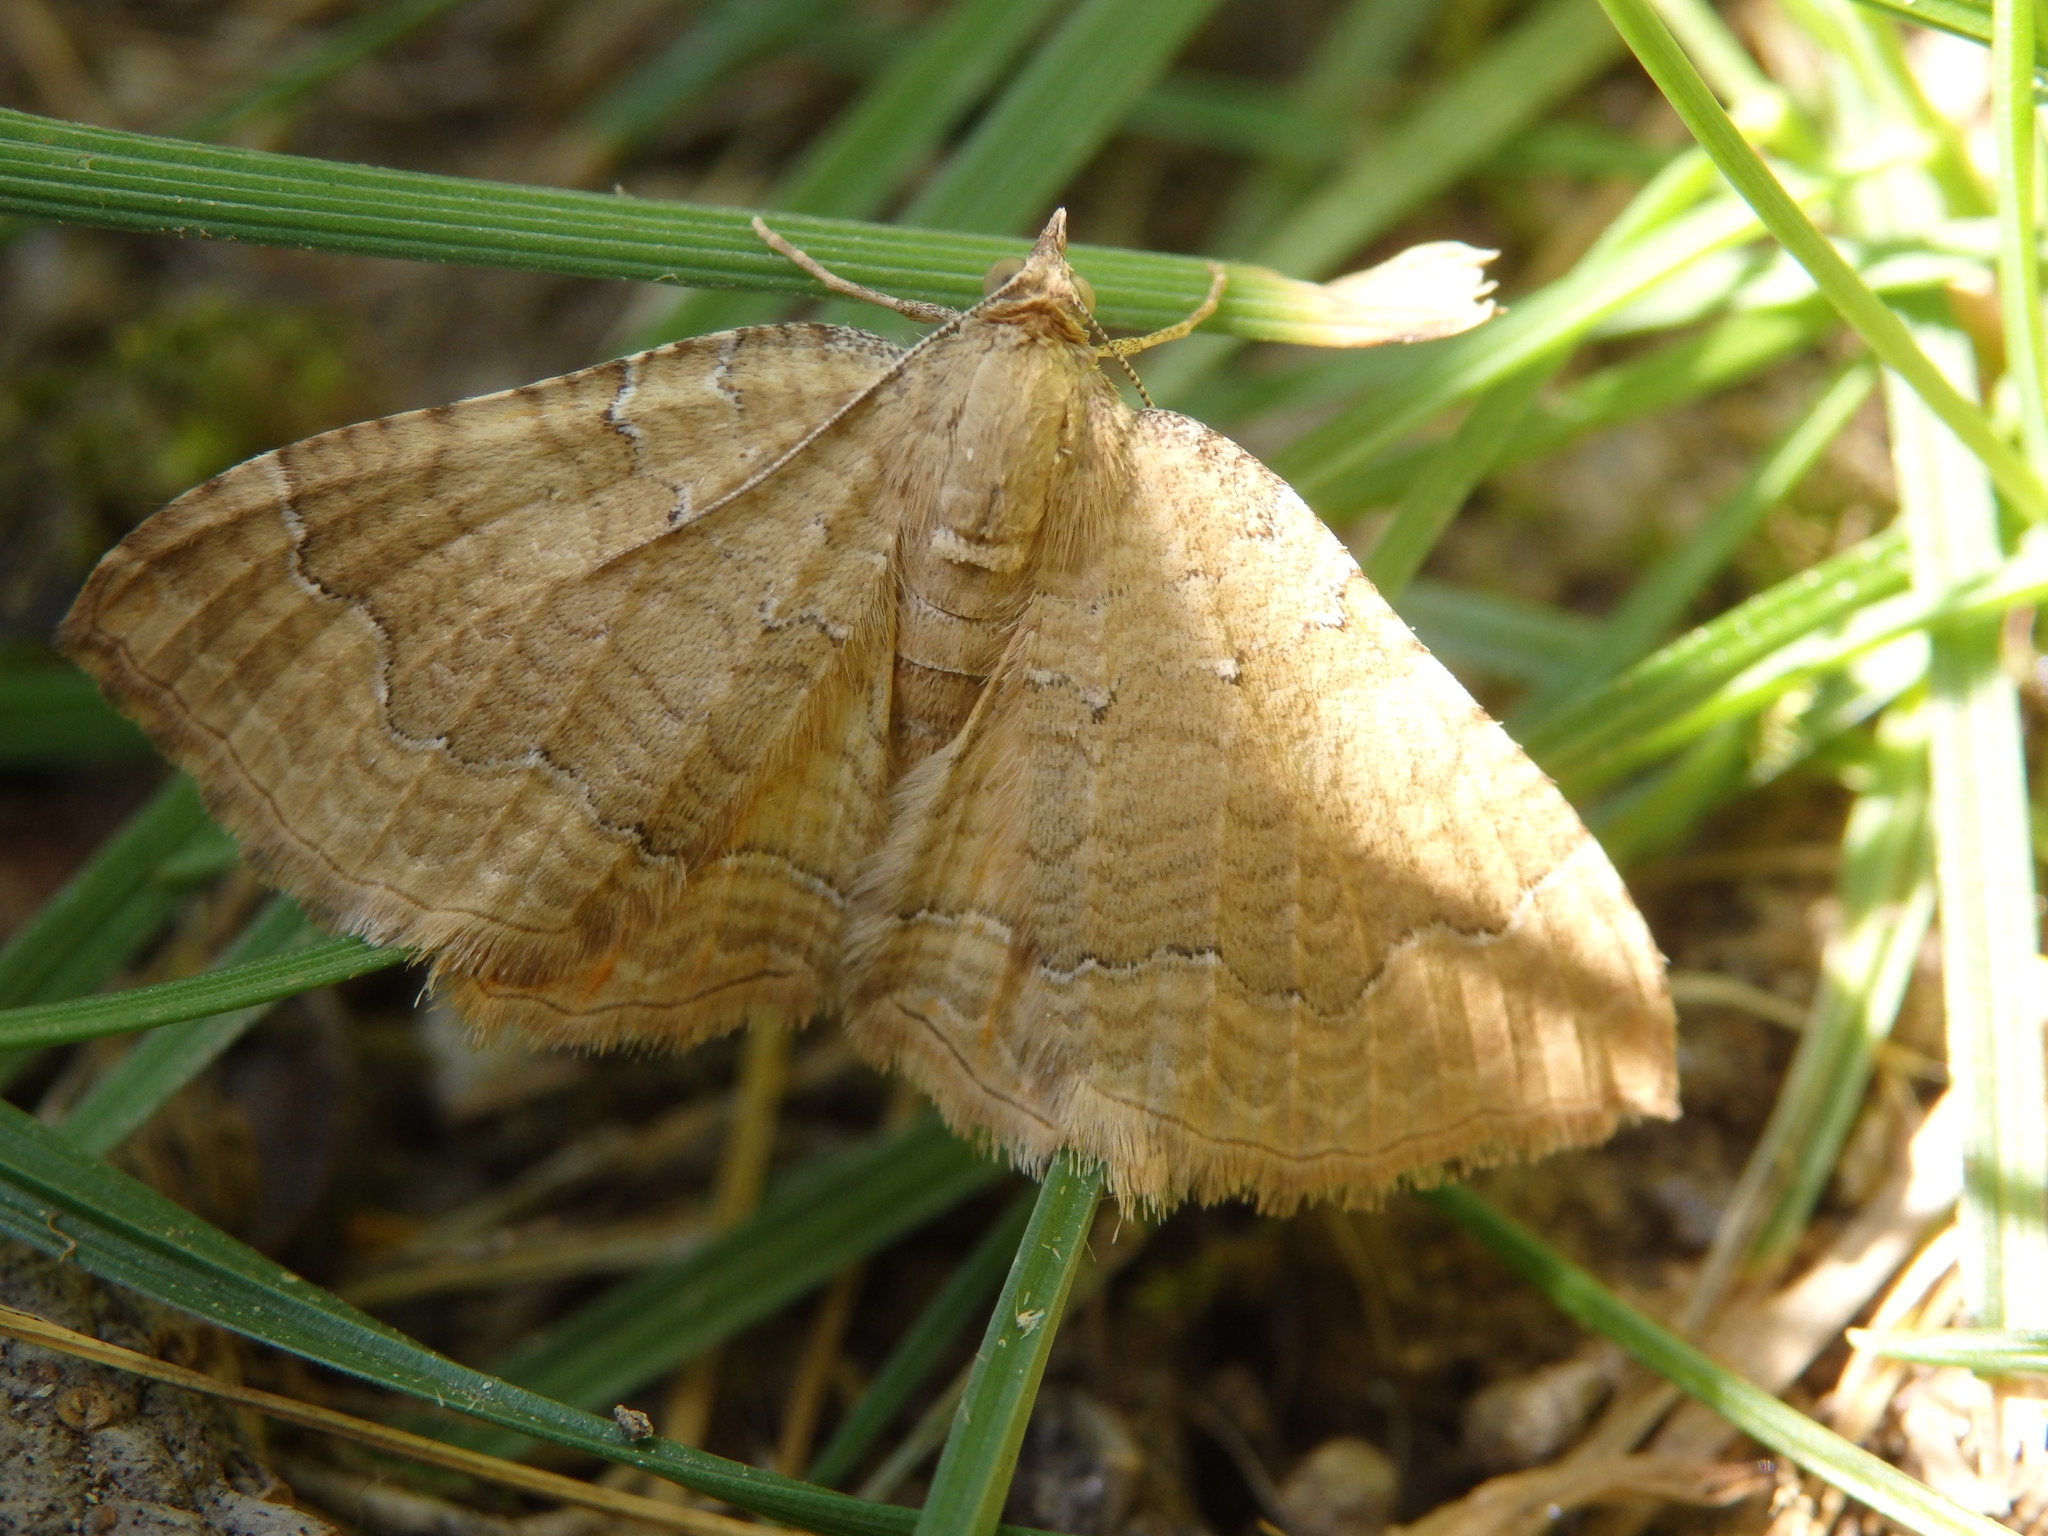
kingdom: Animalia
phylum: Arthropoda
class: Insecta
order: Lepidoptera
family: Geometridae
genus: Camptogramma
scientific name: Camptogramma bilineata
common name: Yellow shell
